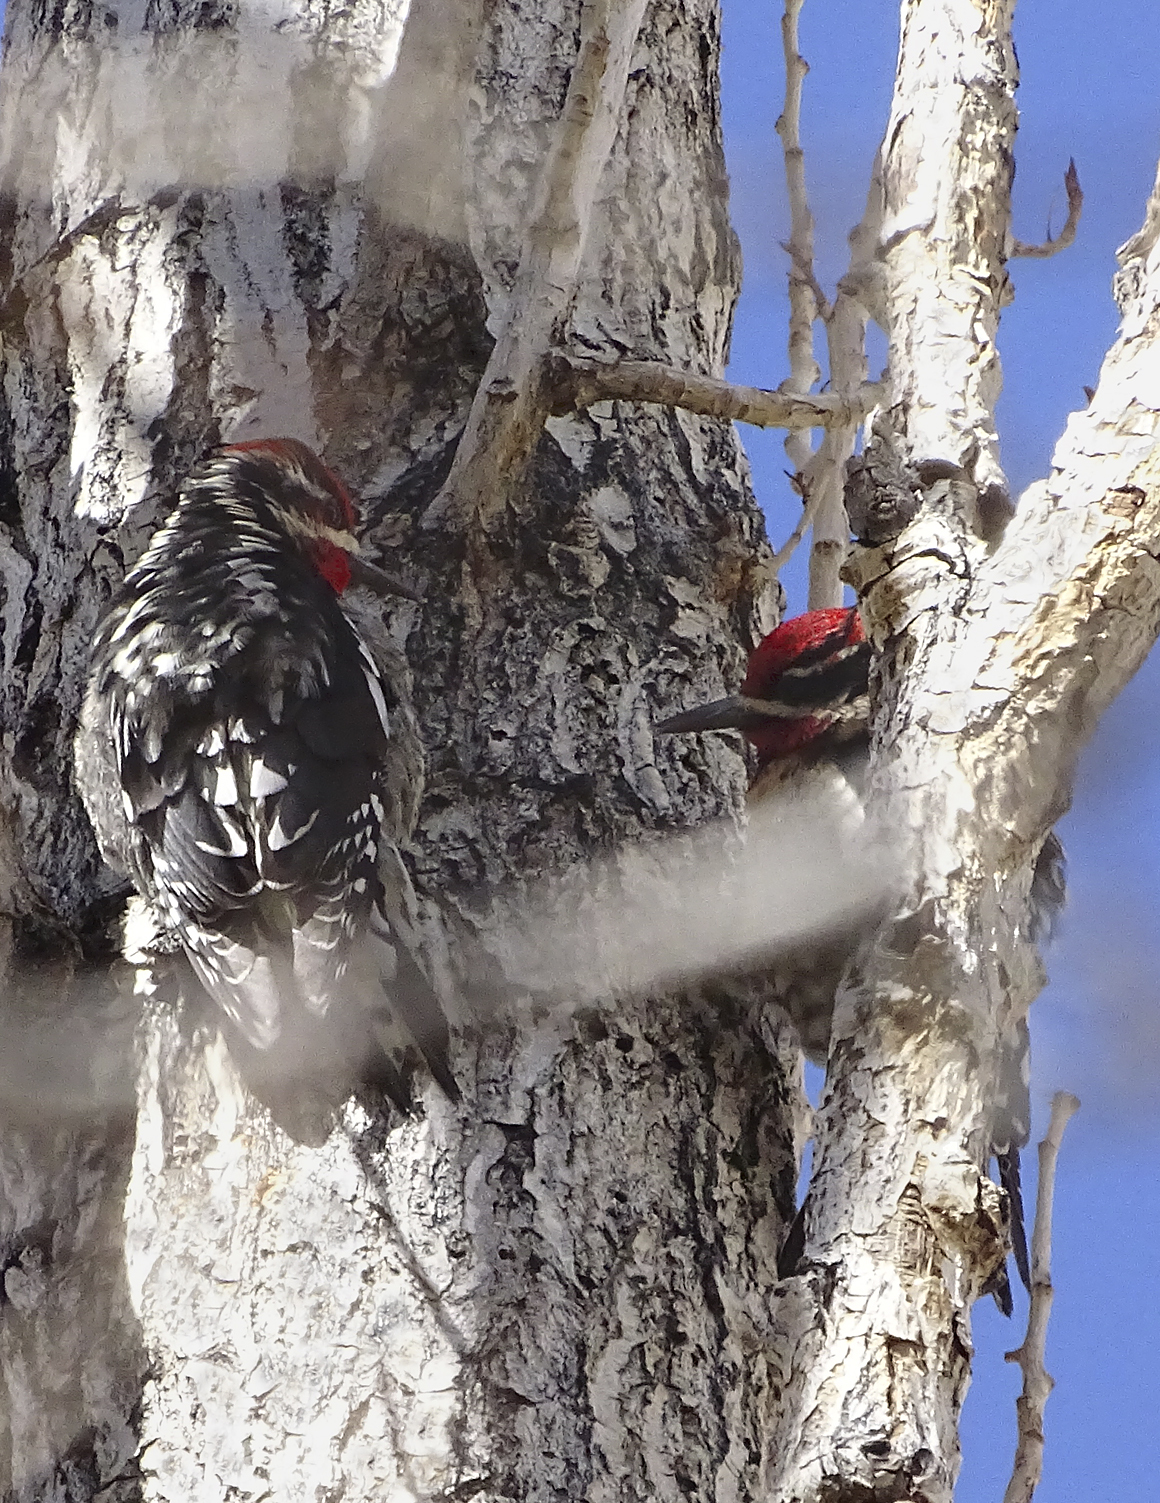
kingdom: Animalia
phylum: Chordata
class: Aves
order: Piciformes
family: Picidae
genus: Sphyrapicus
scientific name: Sphyrapicus nuchalis
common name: Red-naped sapsucker
